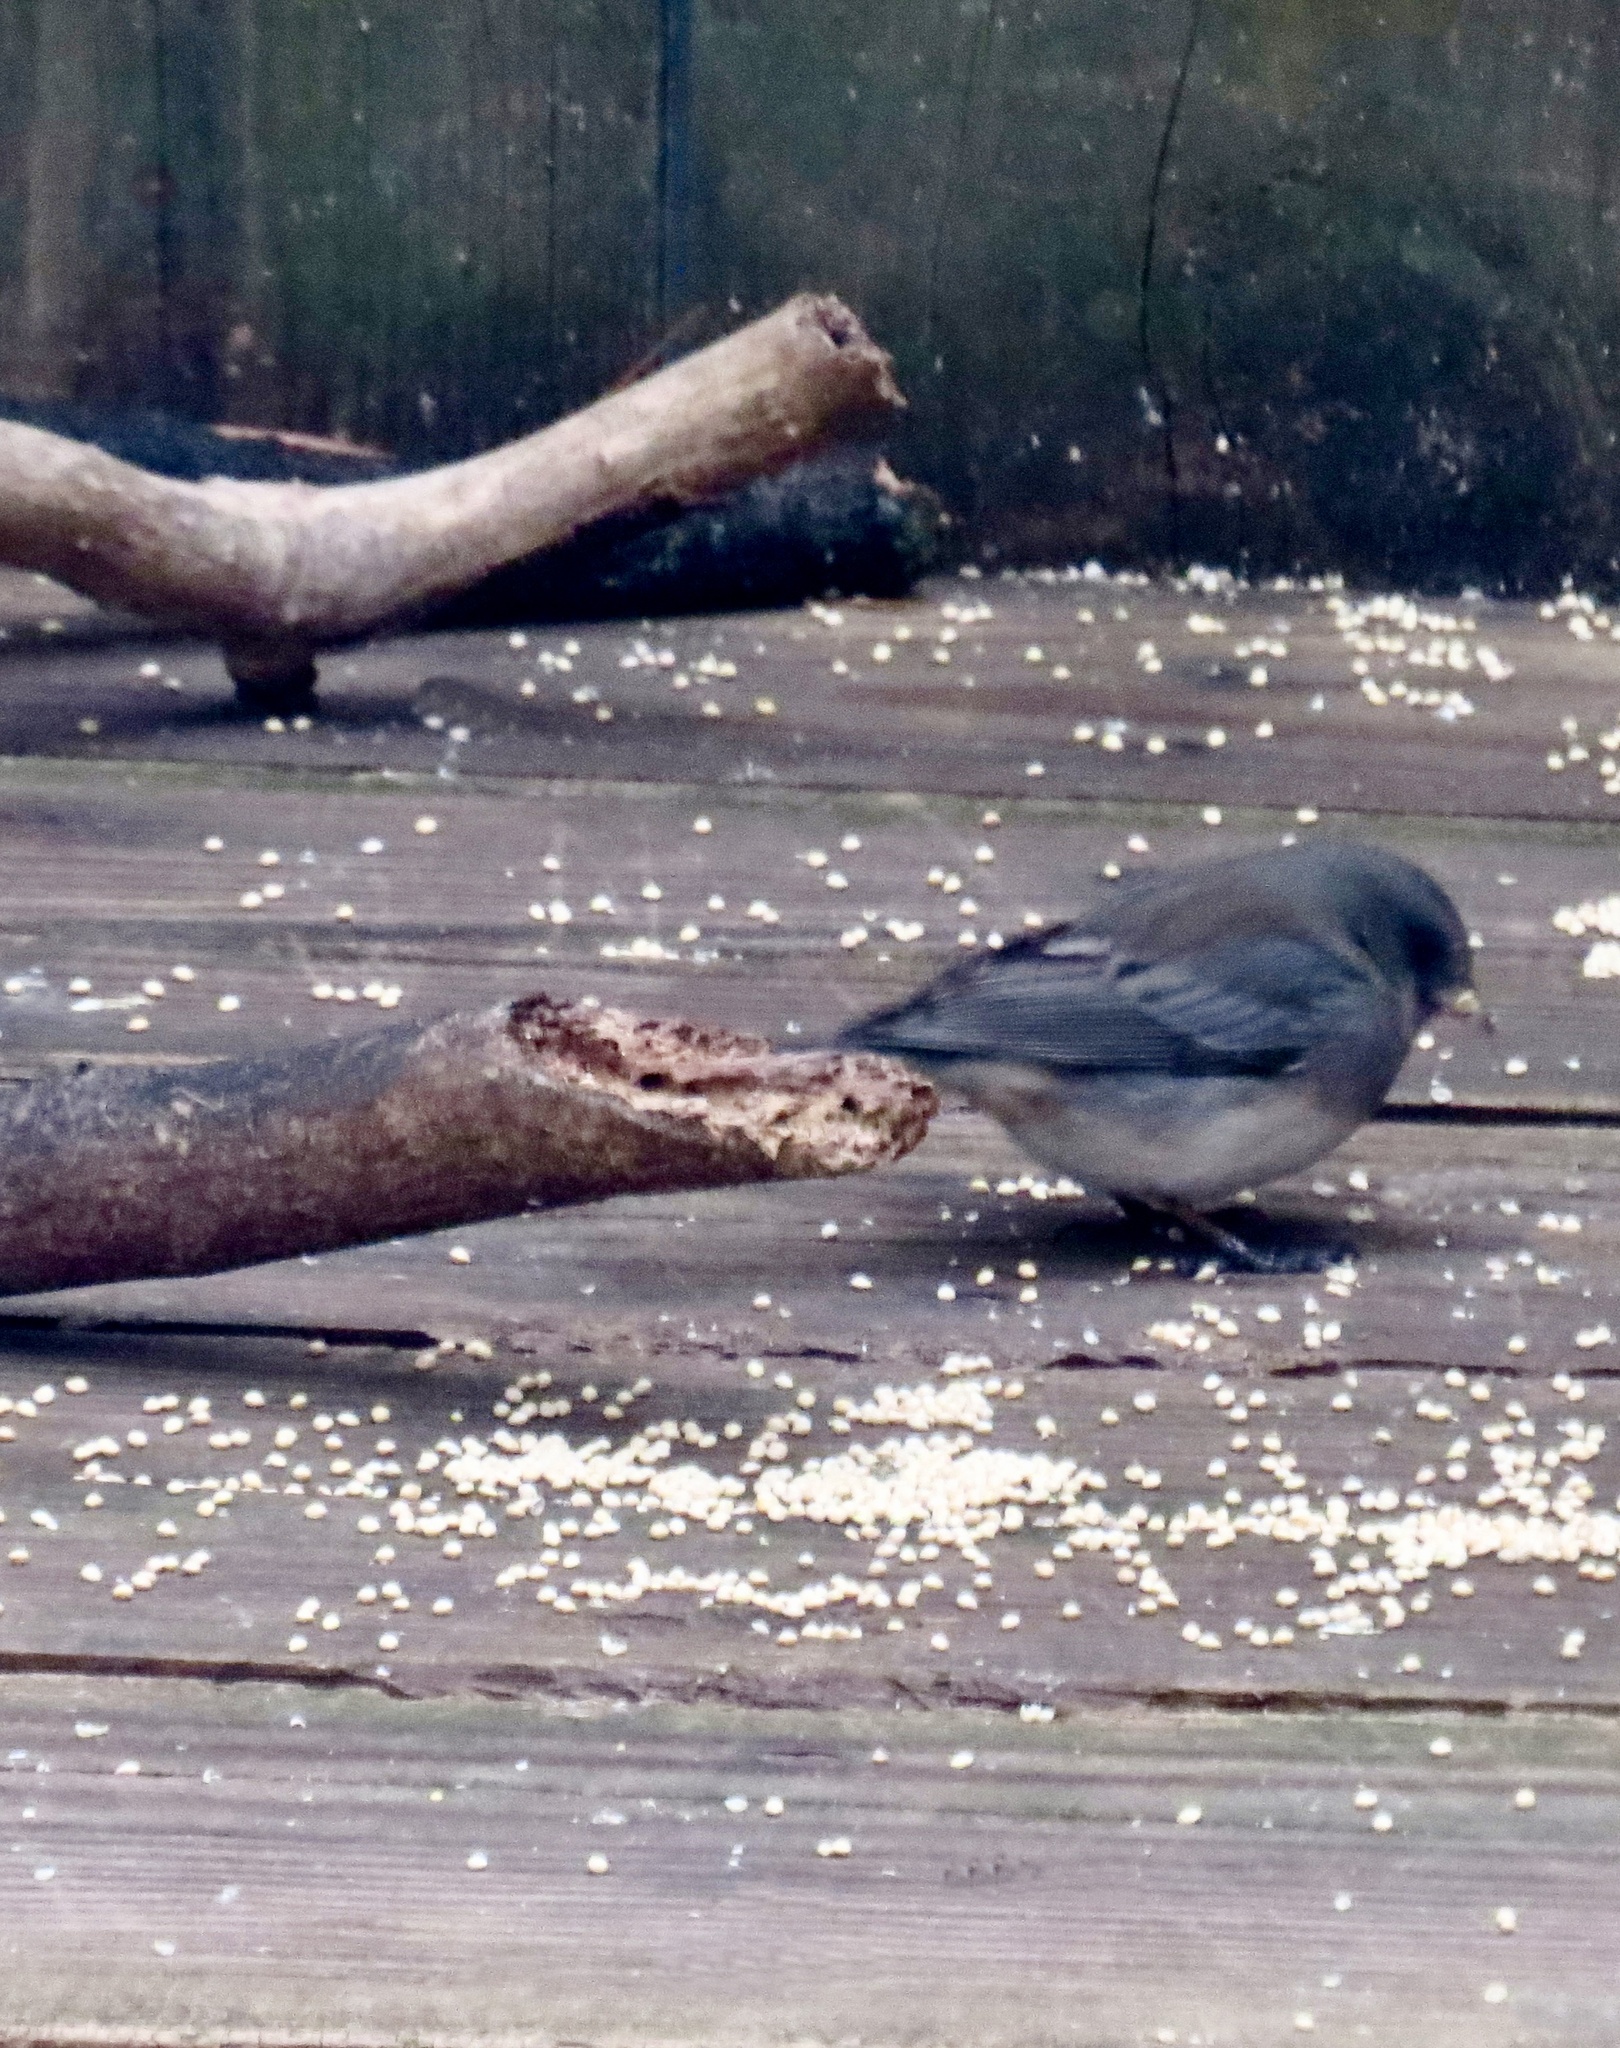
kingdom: Animalia
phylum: Chordata
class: Aves
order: Passeriformes
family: Passerellidae
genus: Junco
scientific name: Junco hyemalis
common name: Dark-eyed junco
